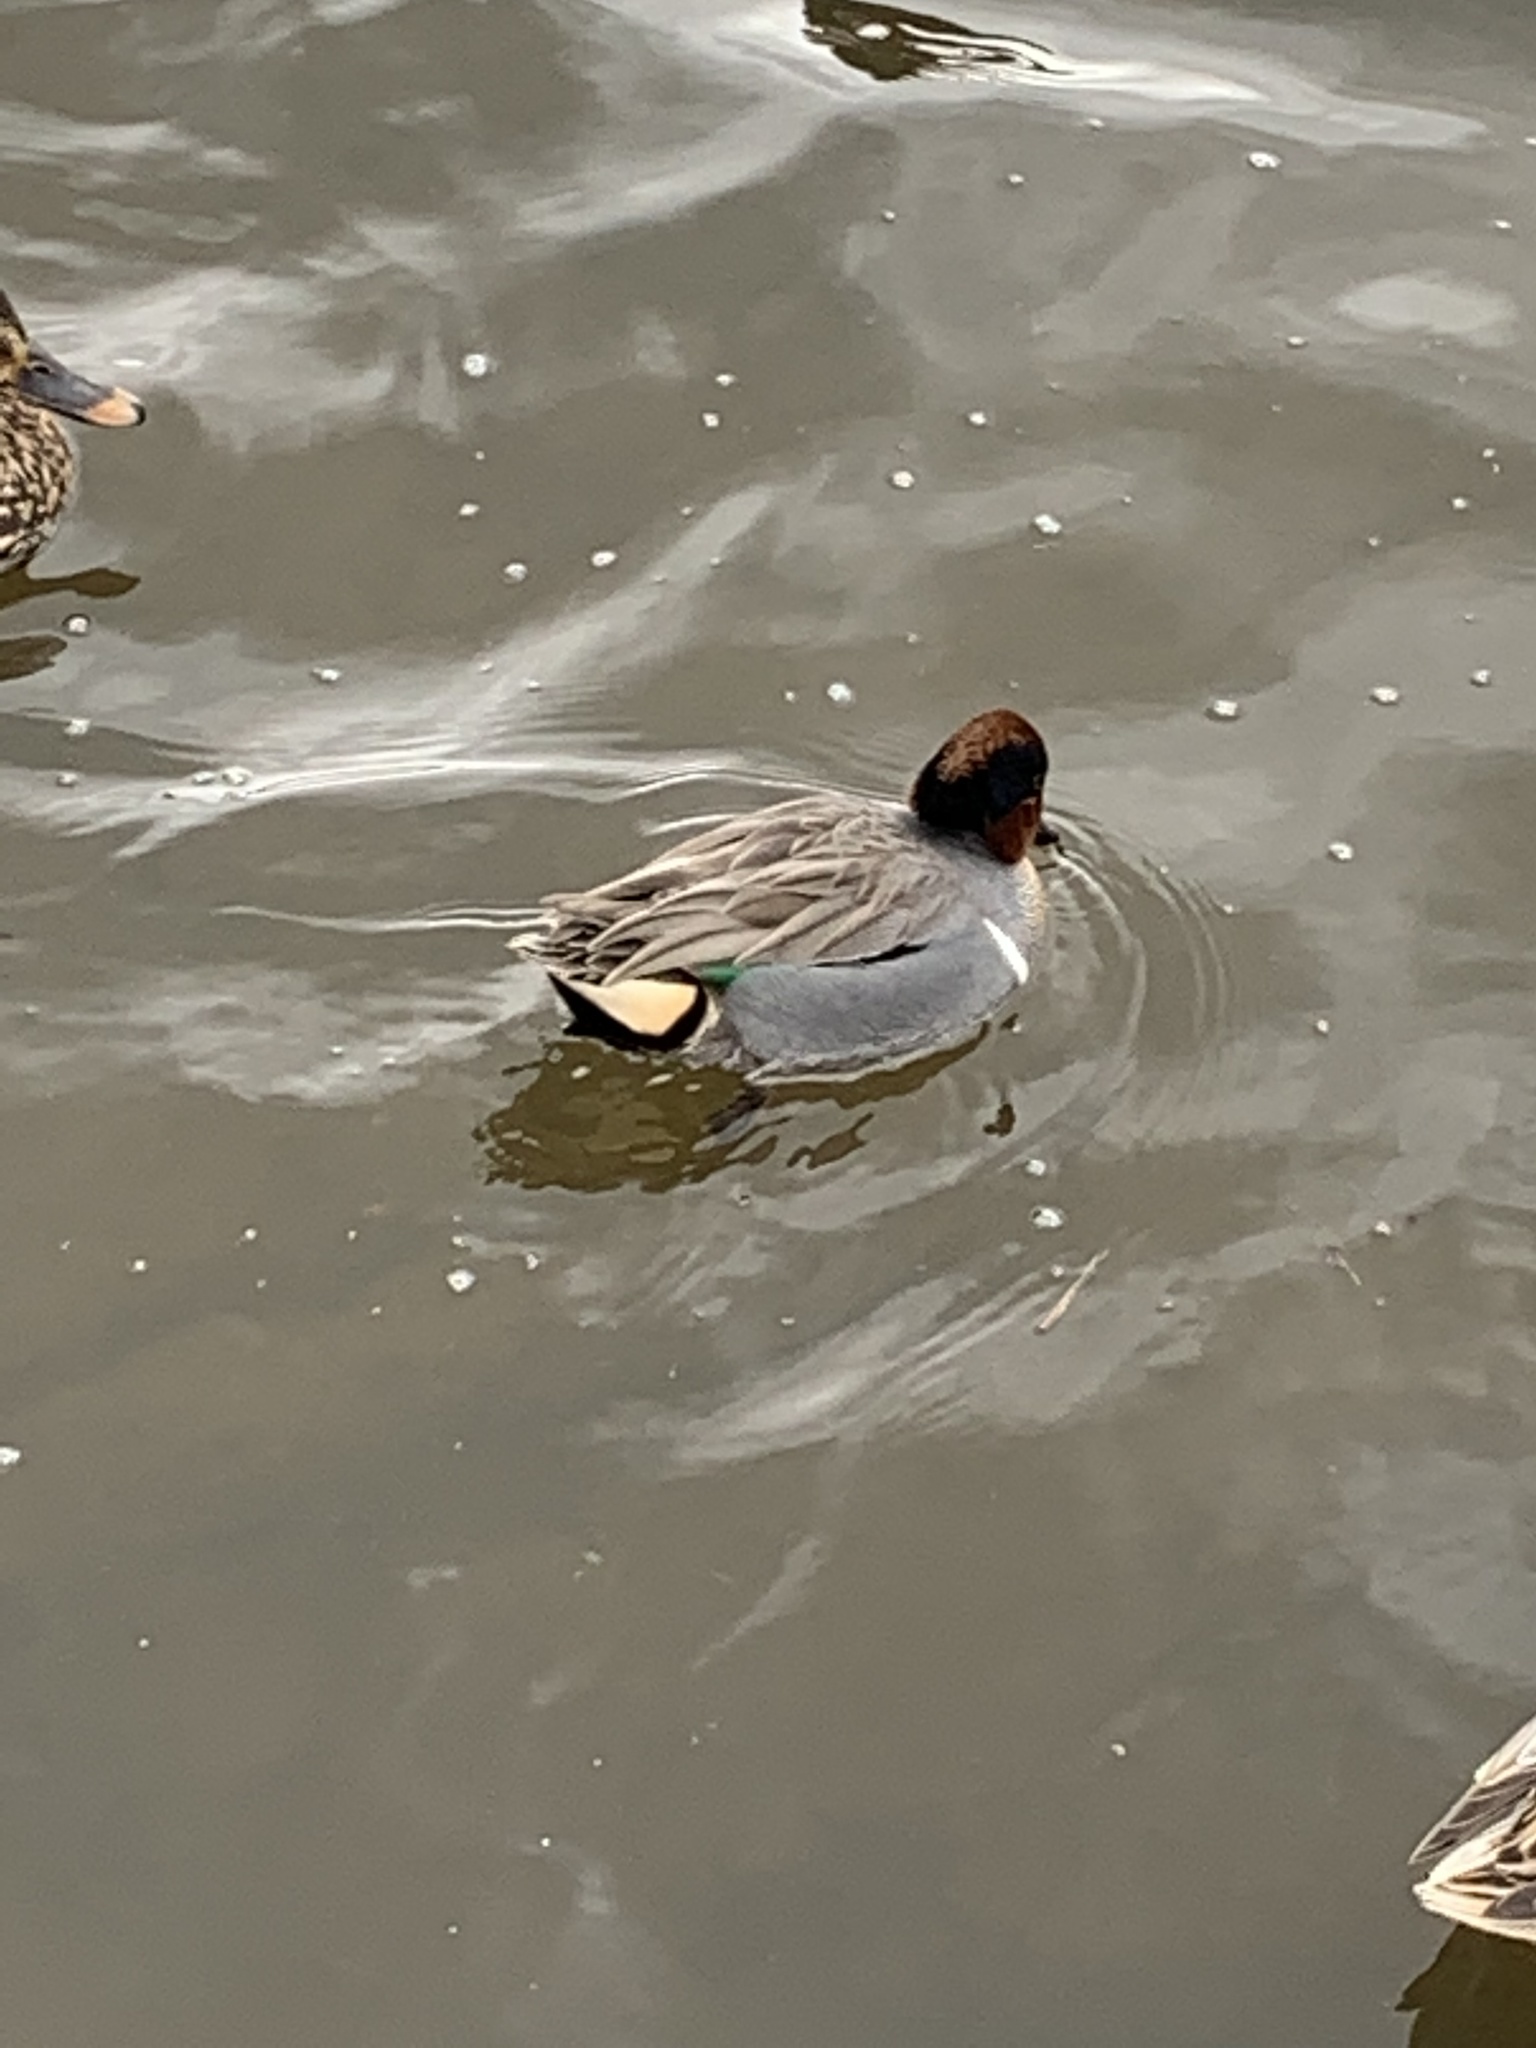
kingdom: Animalia
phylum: Chordata
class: Aves
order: Anseriformes
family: Anatidae
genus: Anas
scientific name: Anas crecca
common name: Eurasian teal
